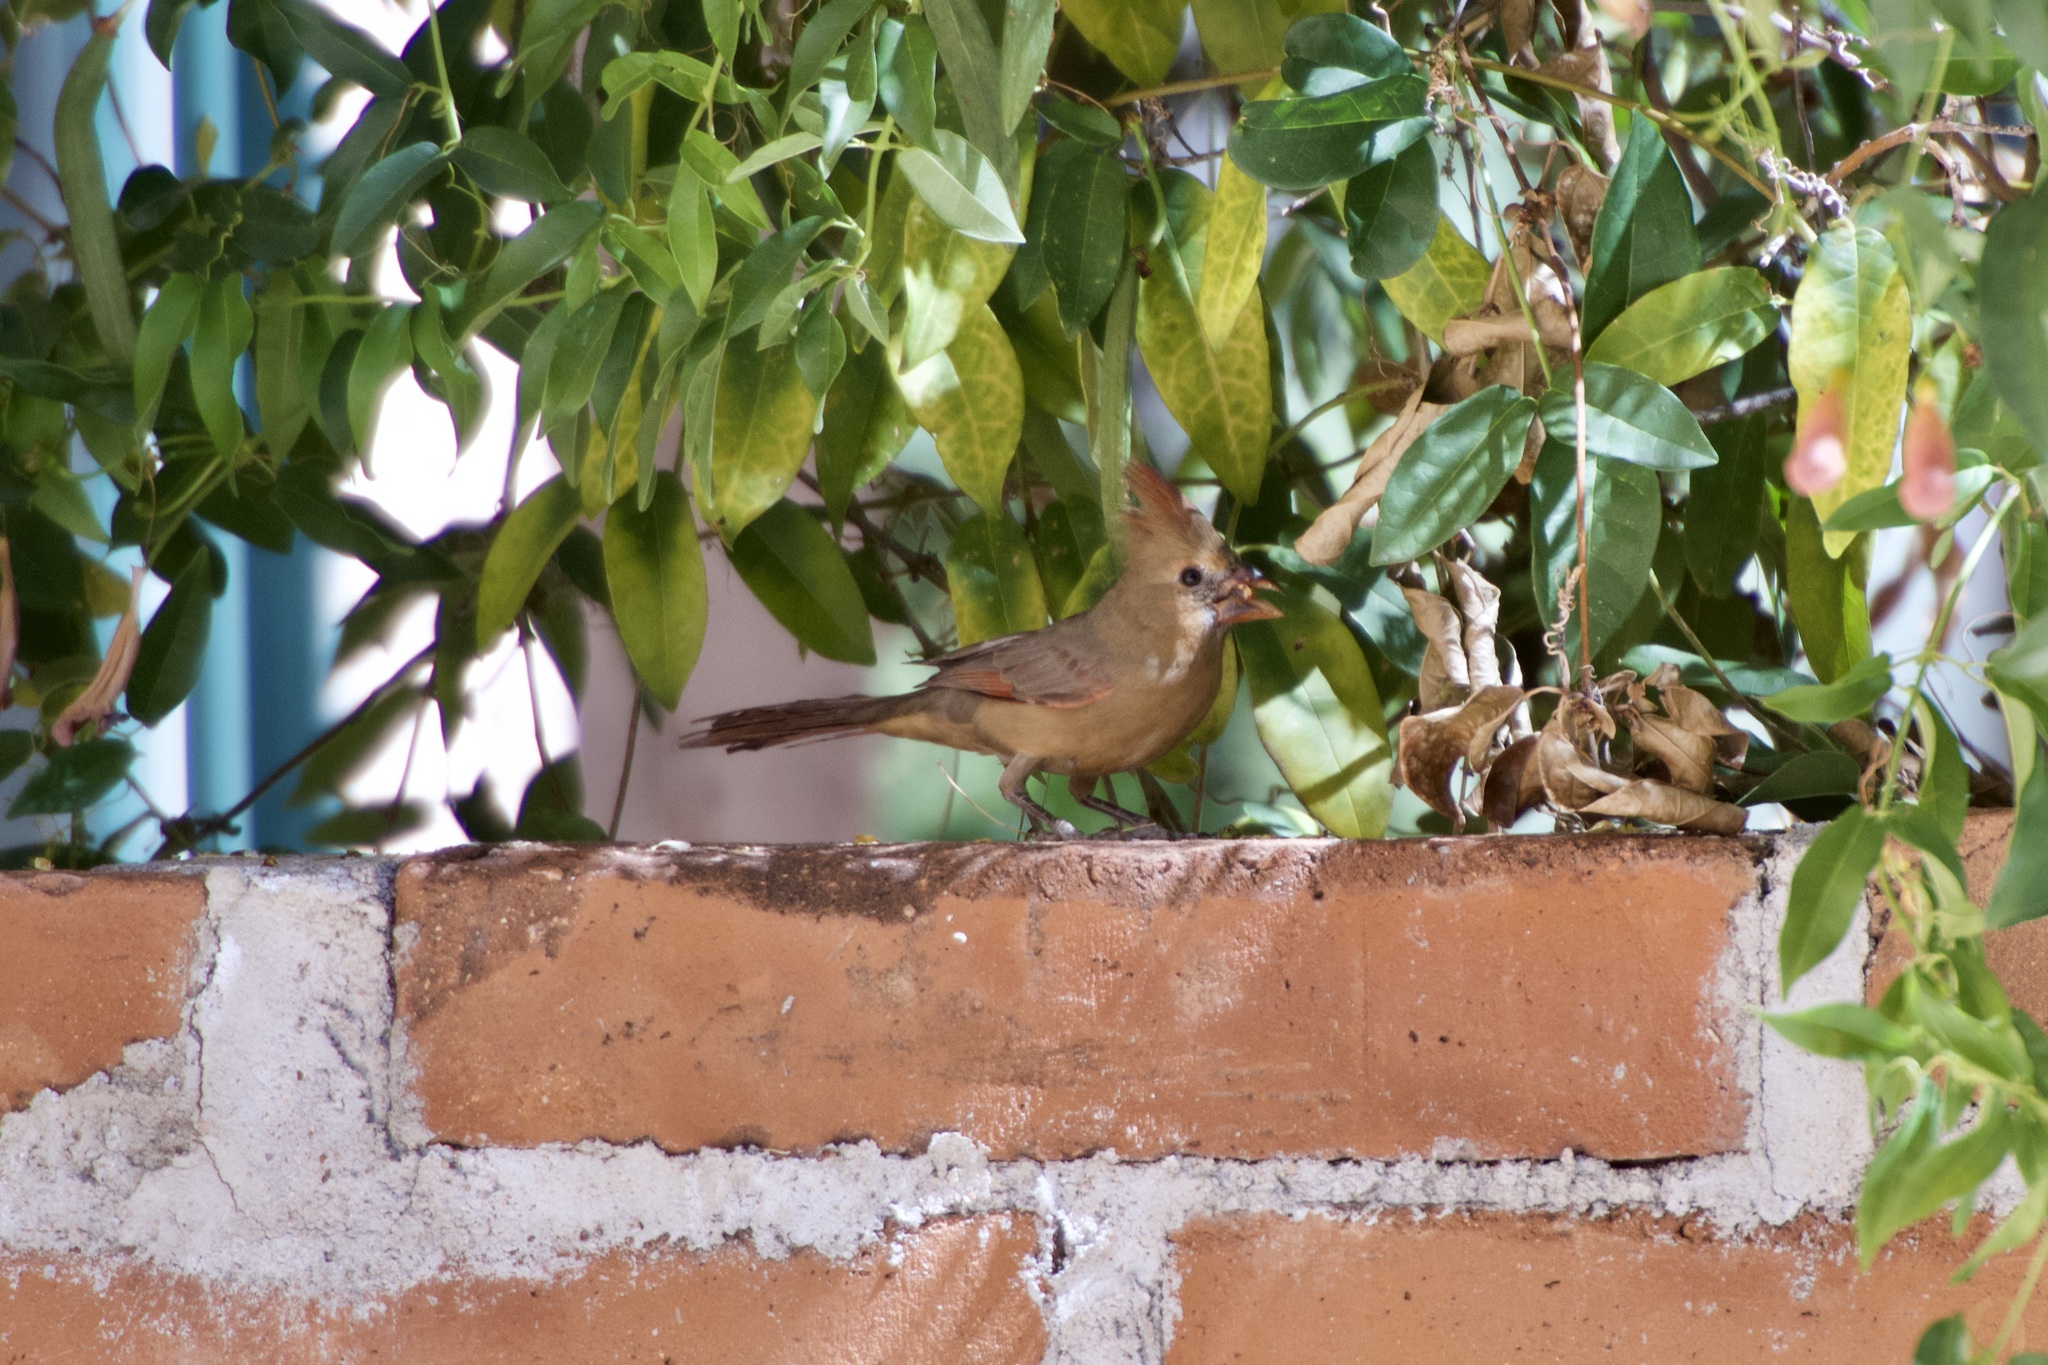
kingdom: Animalia
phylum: Chordata
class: Aves
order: Passeriformes
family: Cardinalidae
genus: Cardinalis
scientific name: Cardinalis cardinalis
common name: Northern cardinal
